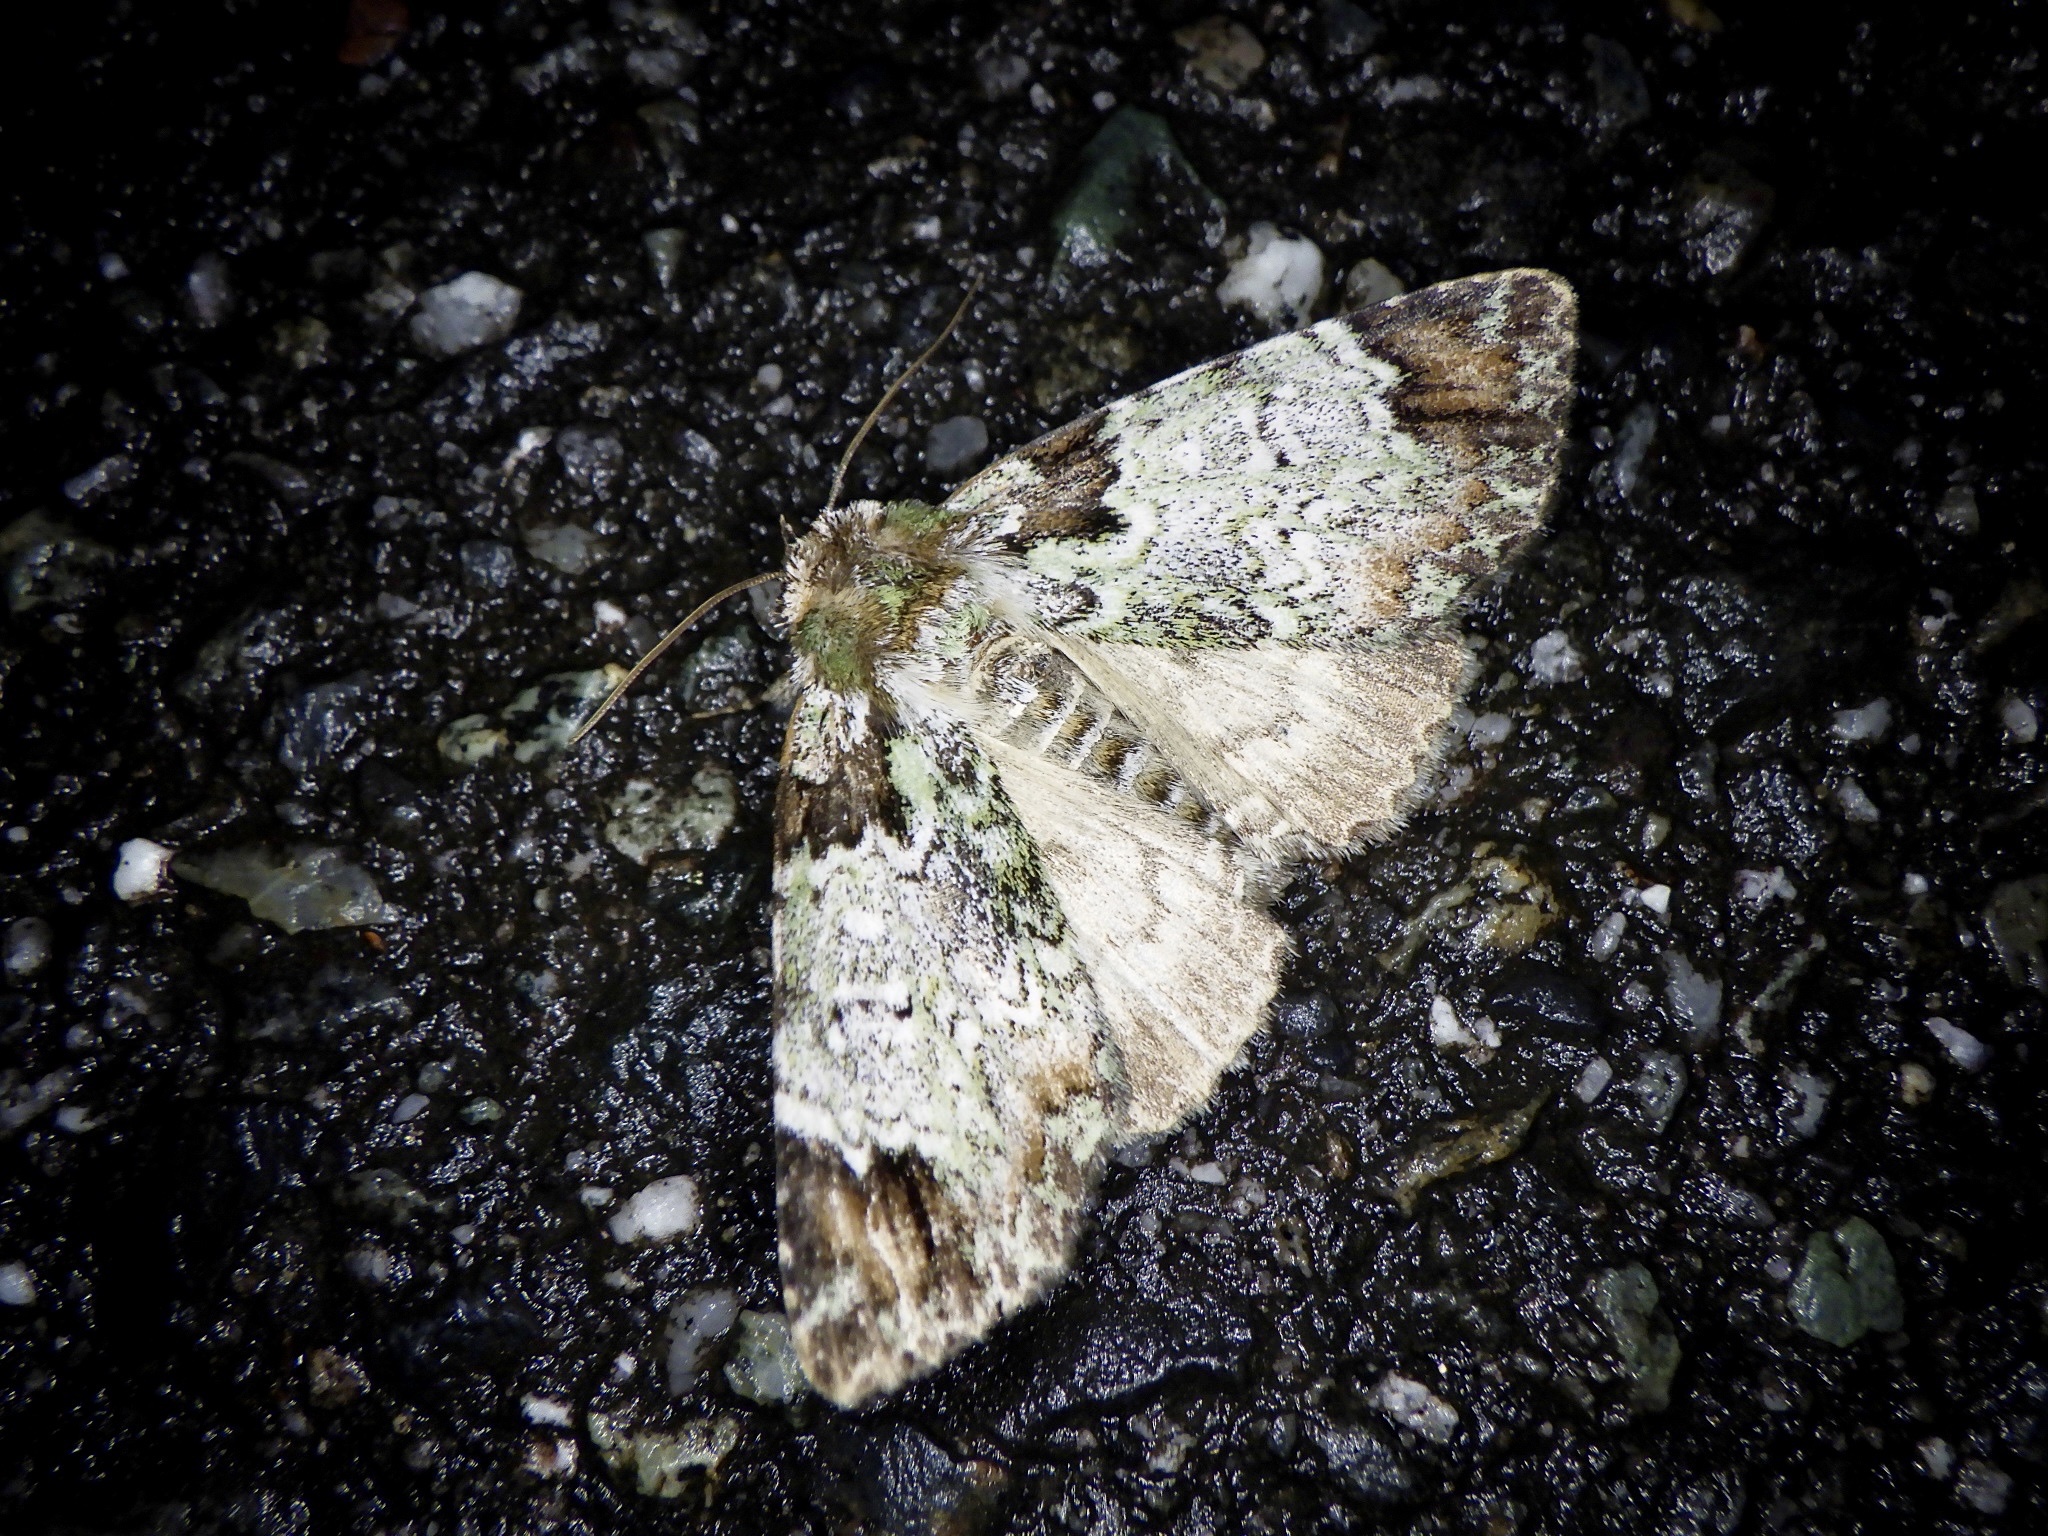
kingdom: Animalia
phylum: Arthropoda
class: Insecta
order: Lepidoptera
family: Erebidae
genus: Belciades
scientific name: Belciades niveola
